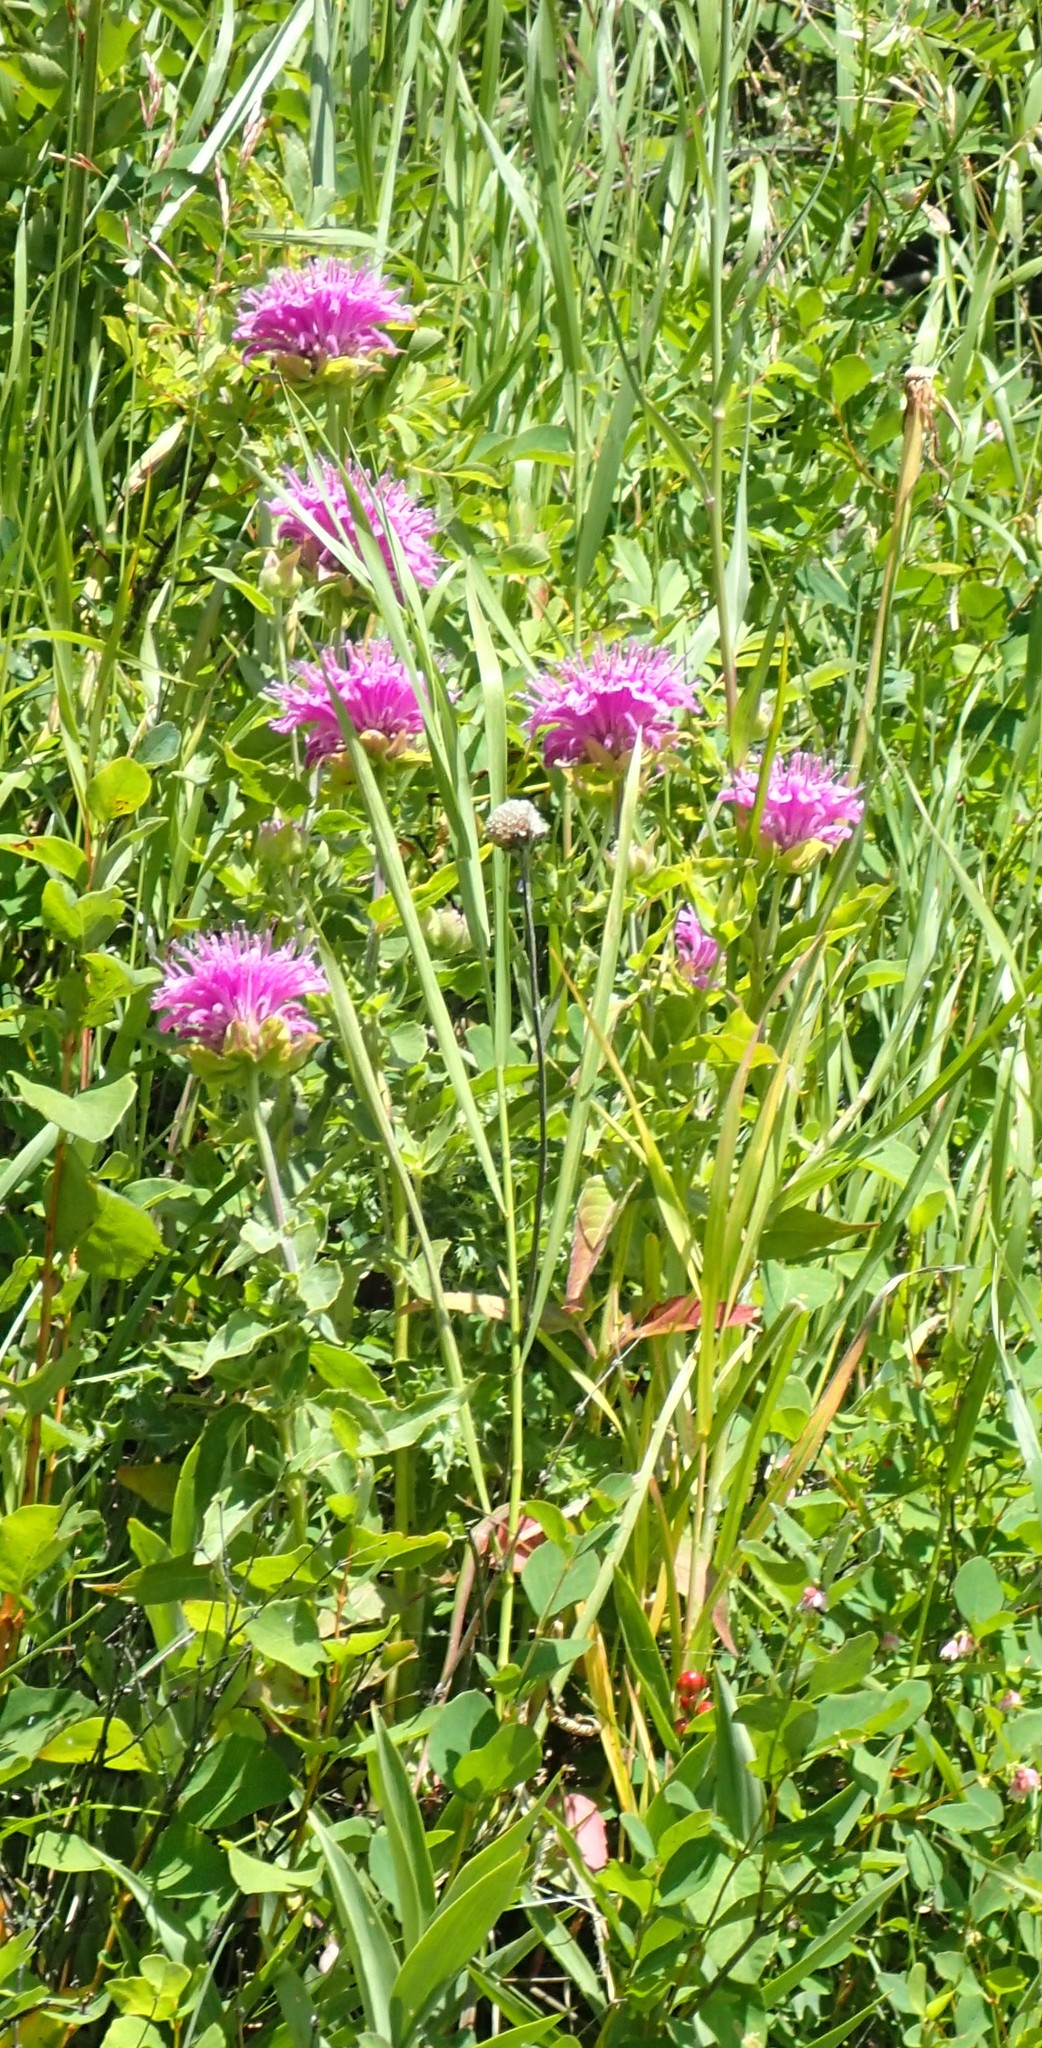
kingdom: Plantae
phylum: Tracheophyta
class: Magnoliopsida
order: Lamiales
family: Lamiaceae
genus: Monarda
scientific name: Monarda fistulosa
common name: Purple beebalm
